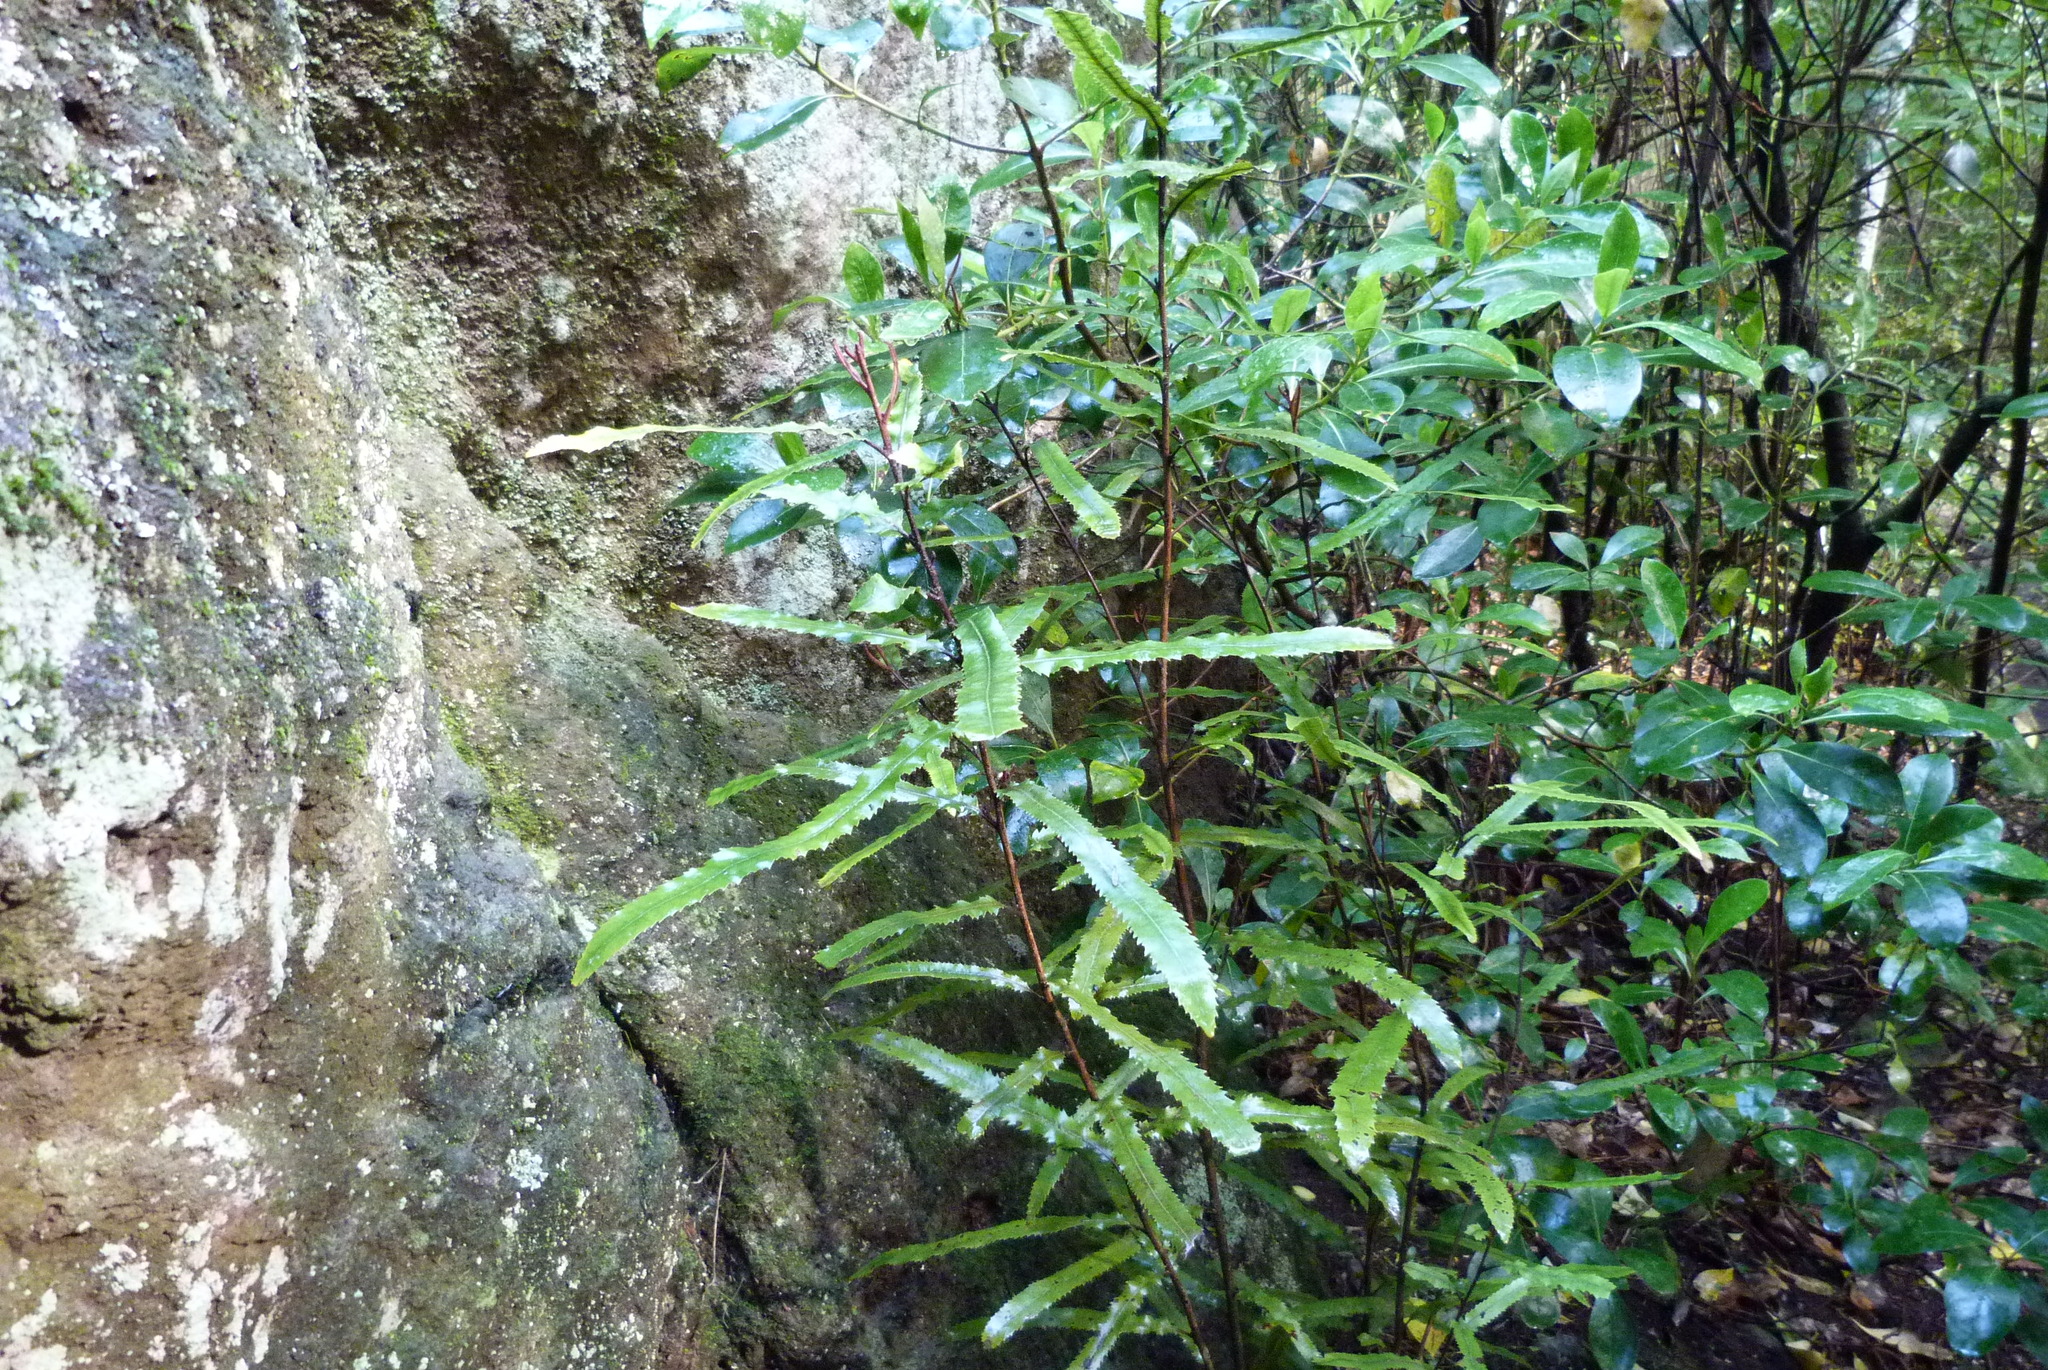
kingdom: Plantae
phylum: Tracheophyta
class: Magnoliopsida
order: Oxalidales
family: Elaeocarpaceae
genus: Elaeocarpus
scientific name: Elaeocarpus dentatus
